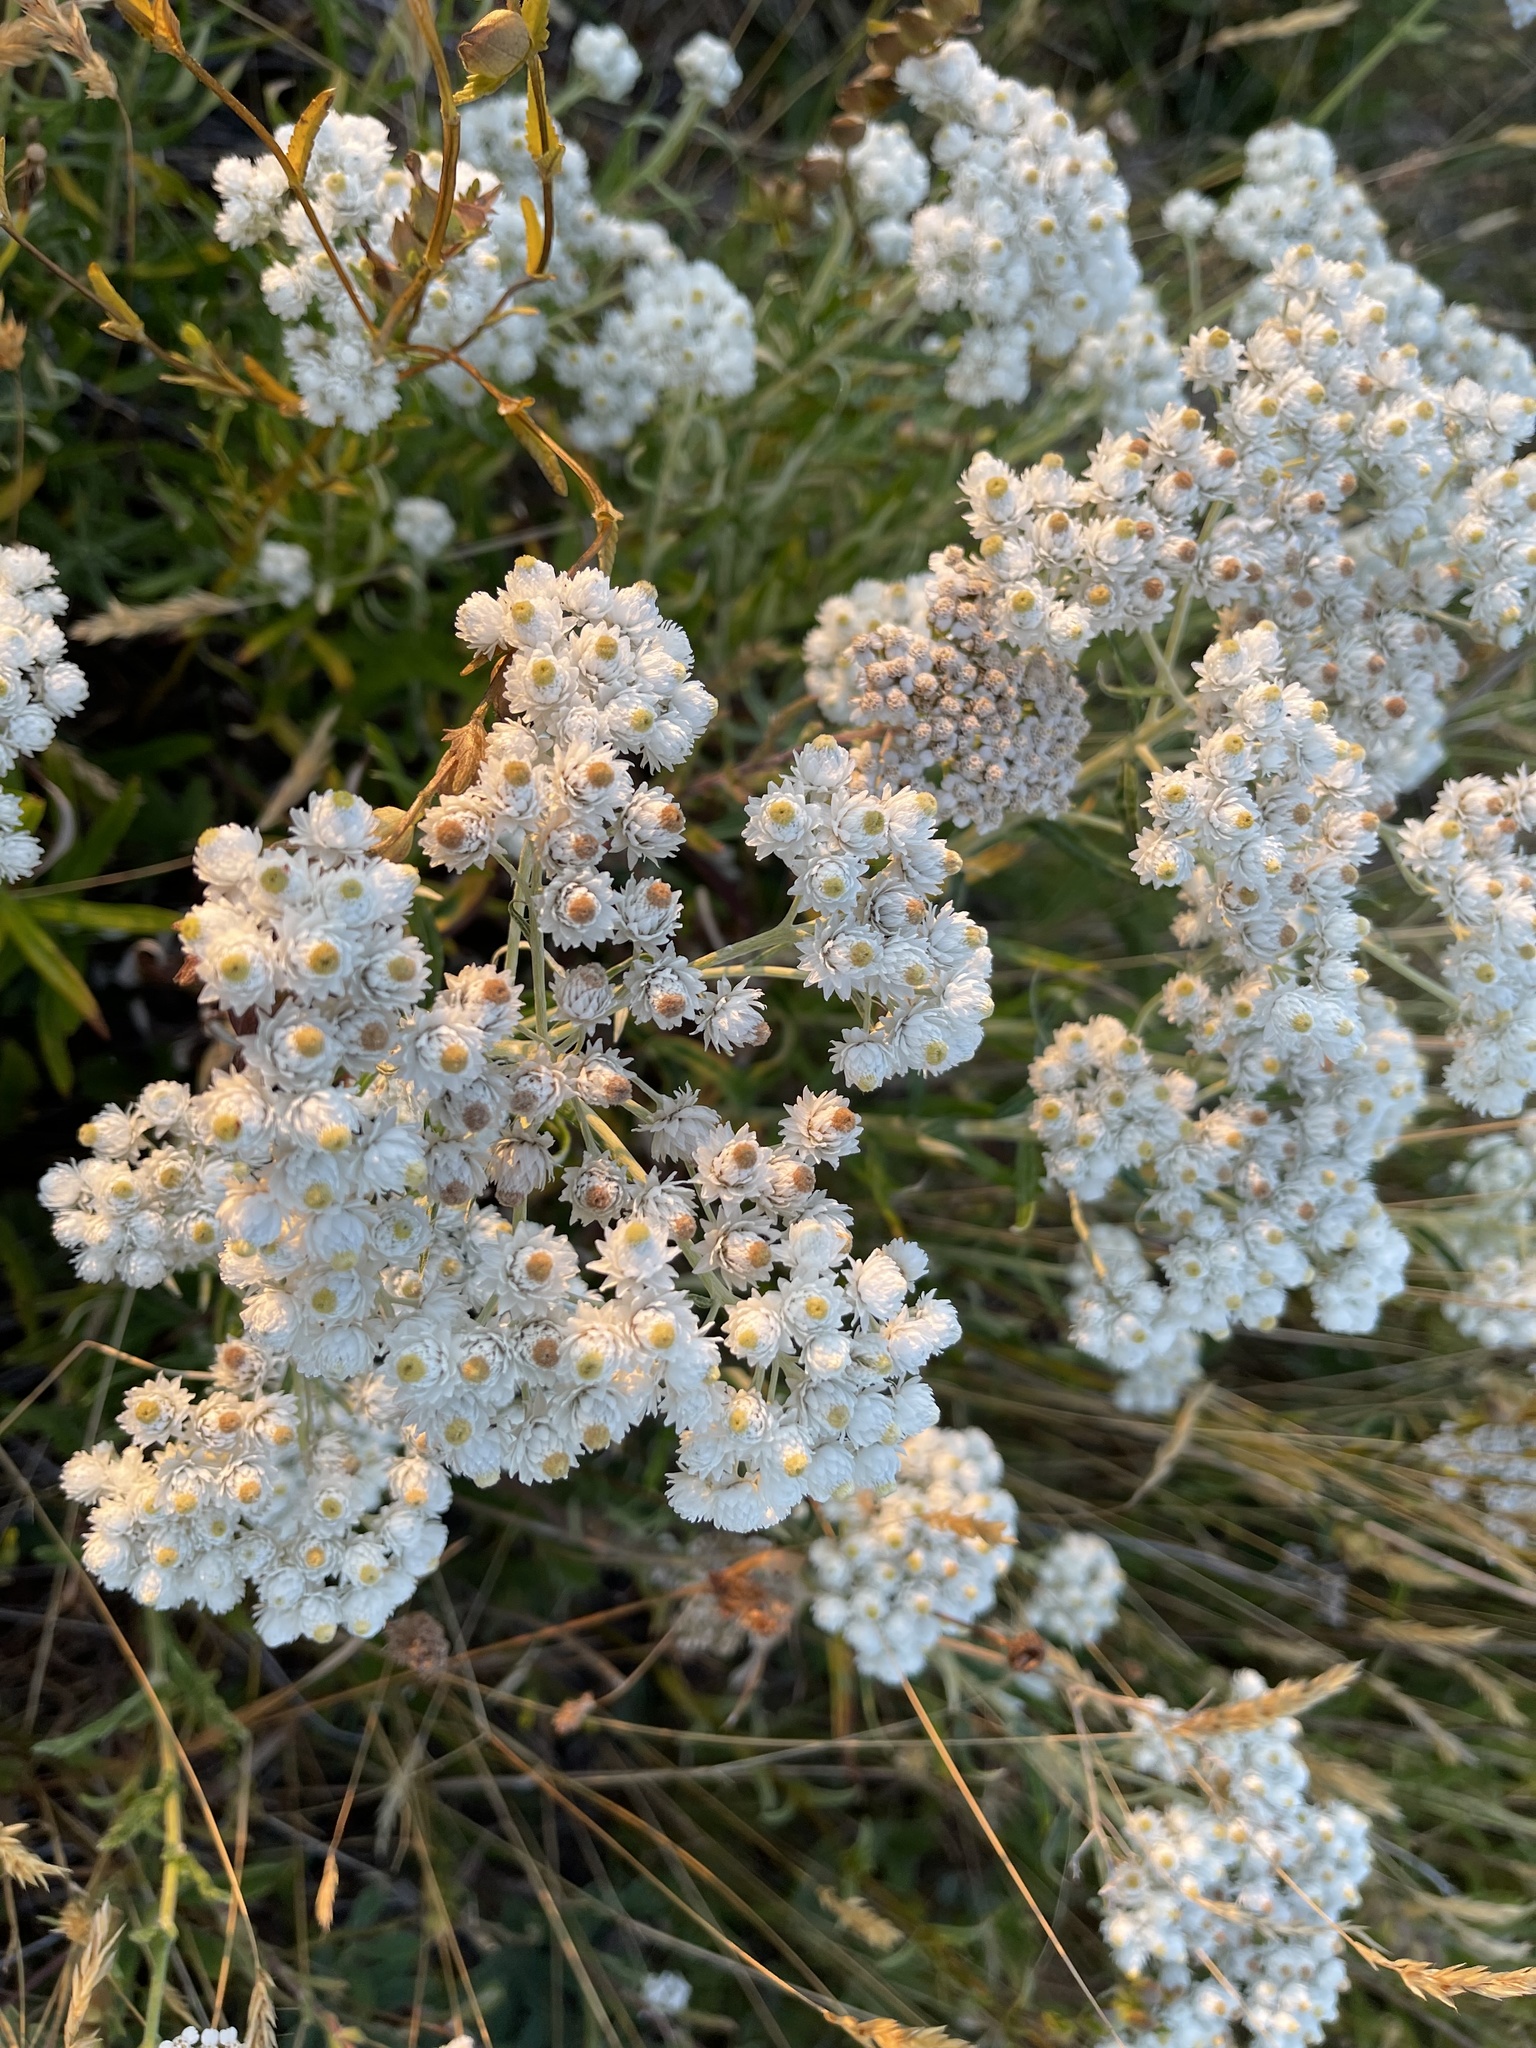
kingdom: Plantae
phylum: Tracheophyta
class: Magnoliopsida
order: Asterales
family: Asteraceae
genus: Anaphalis
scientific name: Anaphalis margaritacea
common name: Pearly everlasting
